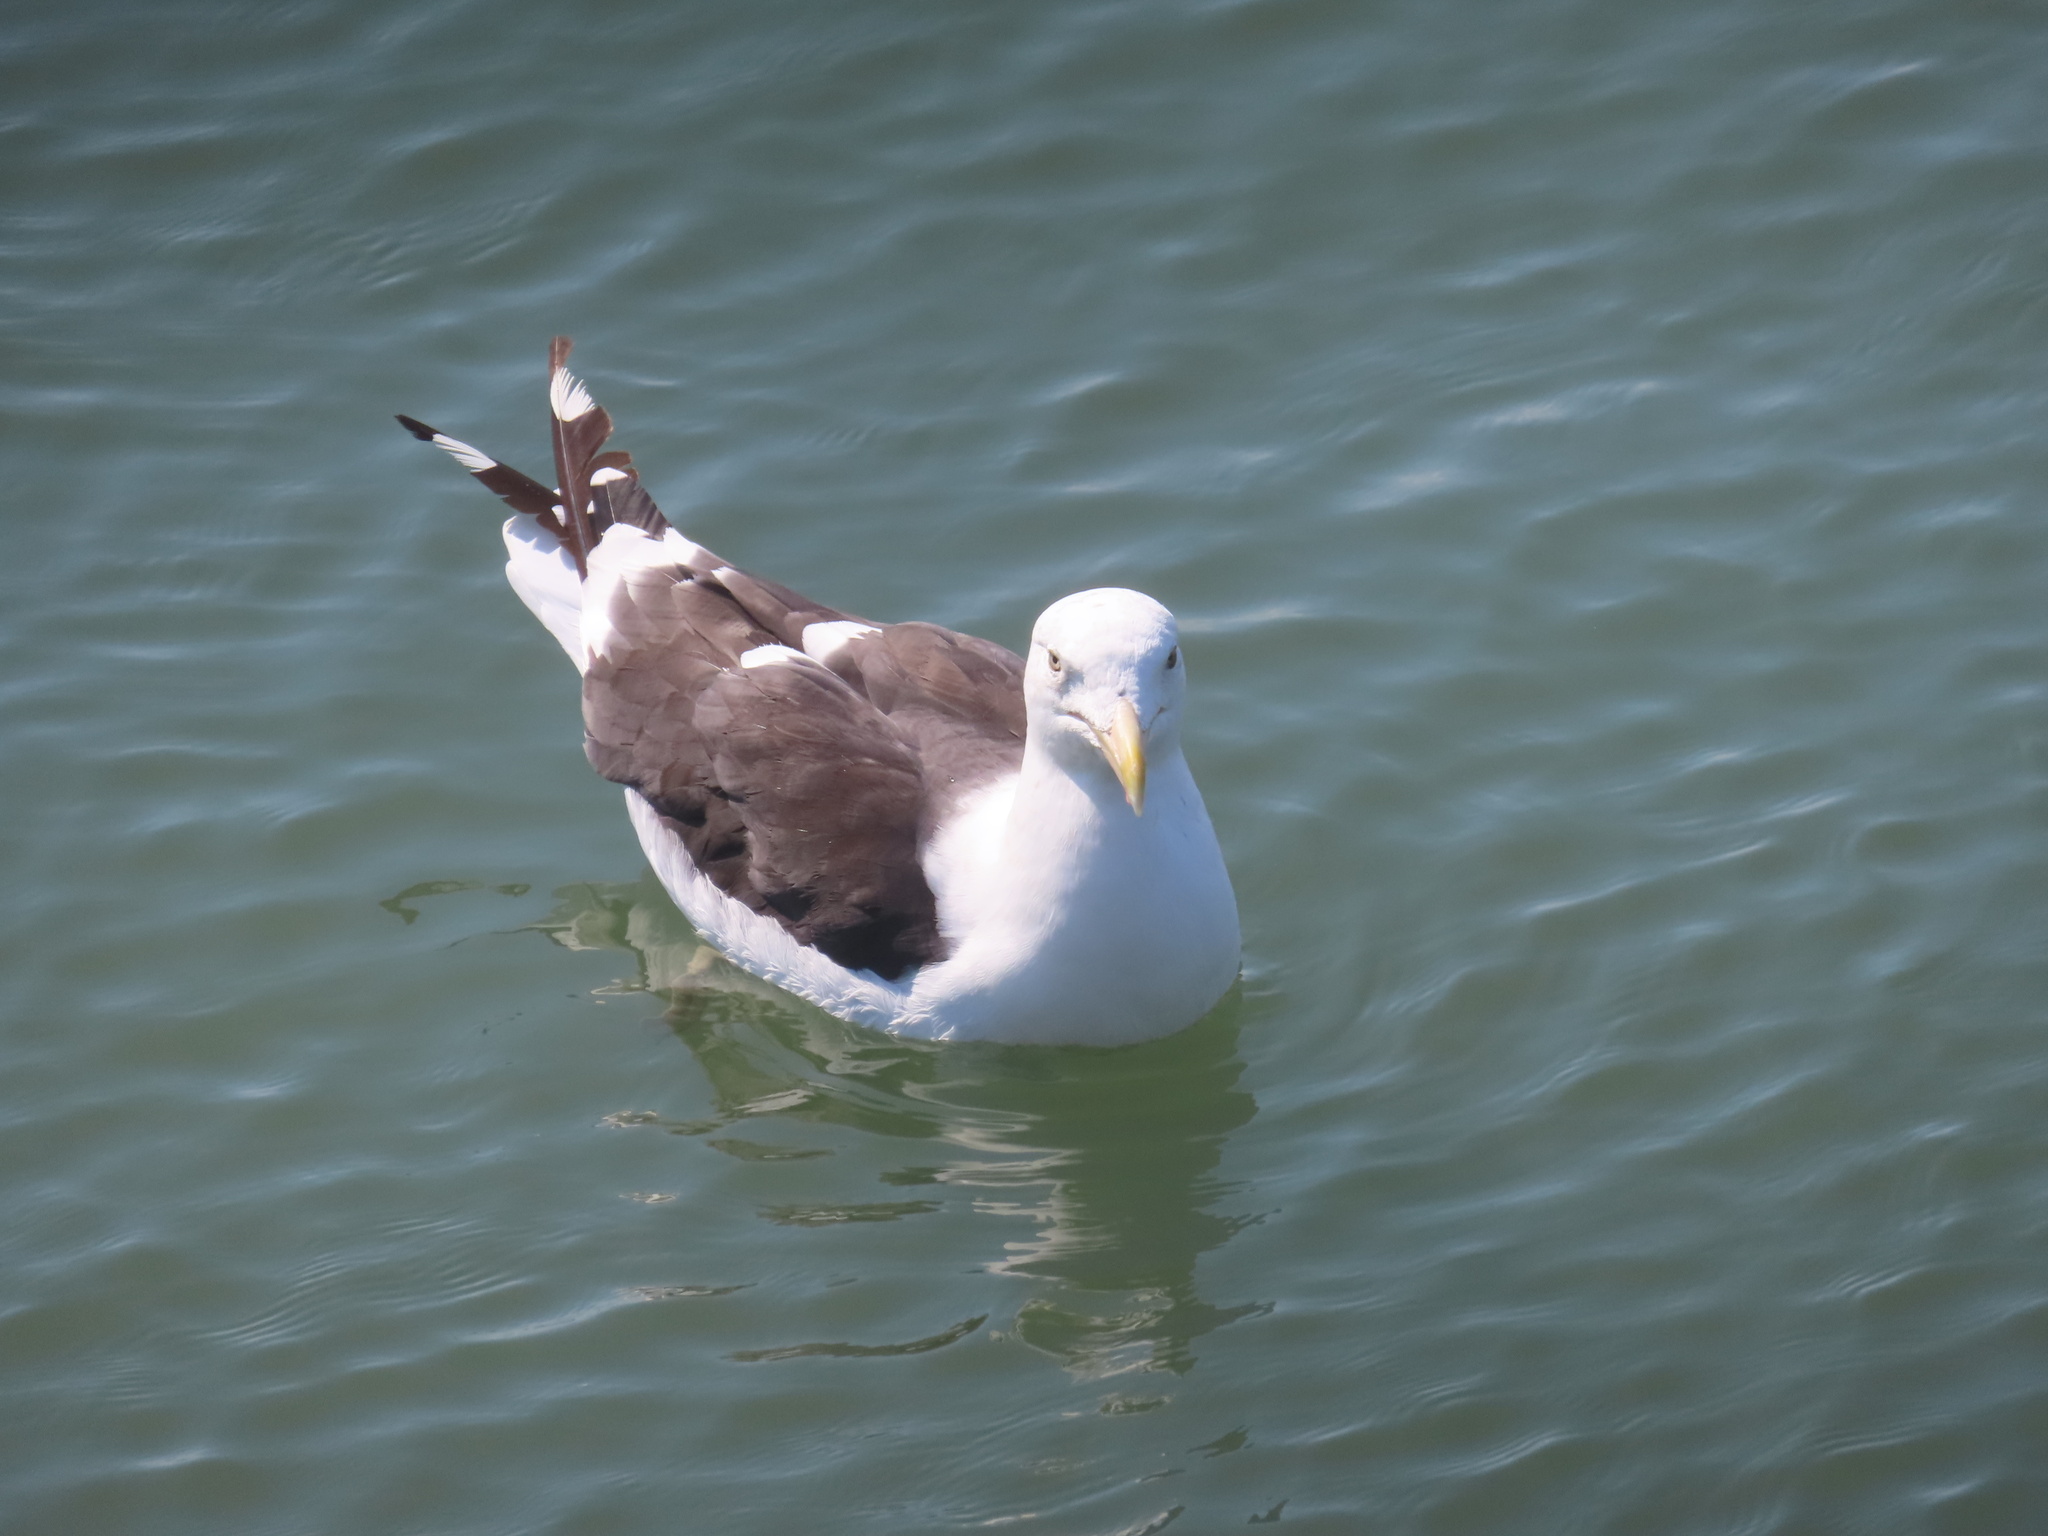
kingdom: Animalia
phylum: Chordata
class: Aves
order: Charadriiformes
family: Laridae
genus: Larus
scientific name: Larus dominicanus
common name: Kelp gull
